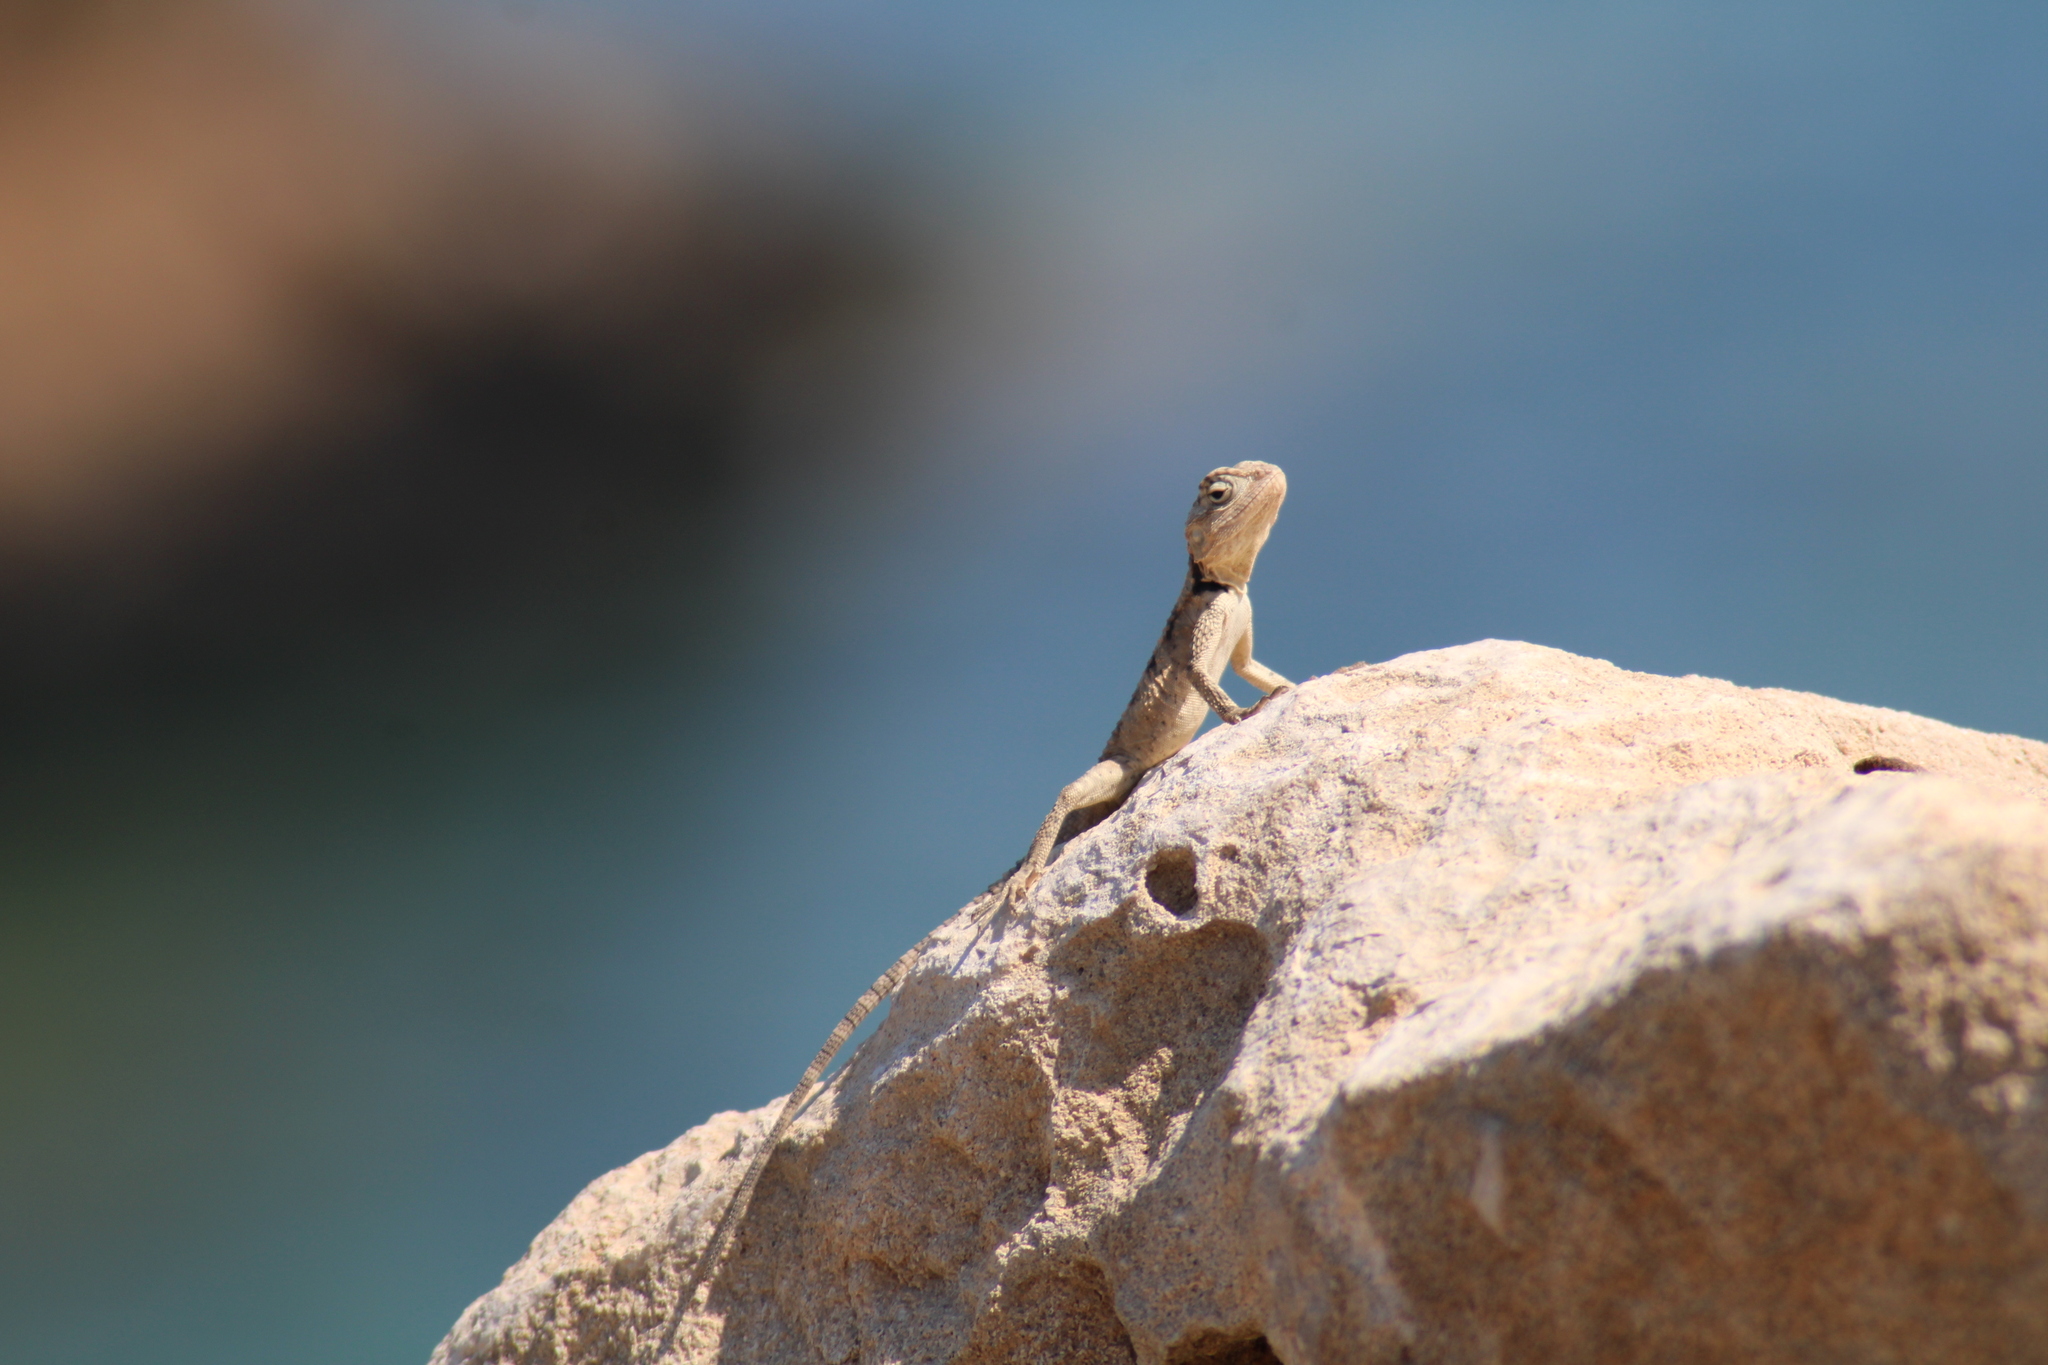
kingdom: Animalia
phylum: Chordata
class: Squamata
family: Agamidae
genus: Laudakia
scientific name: Laudakia
